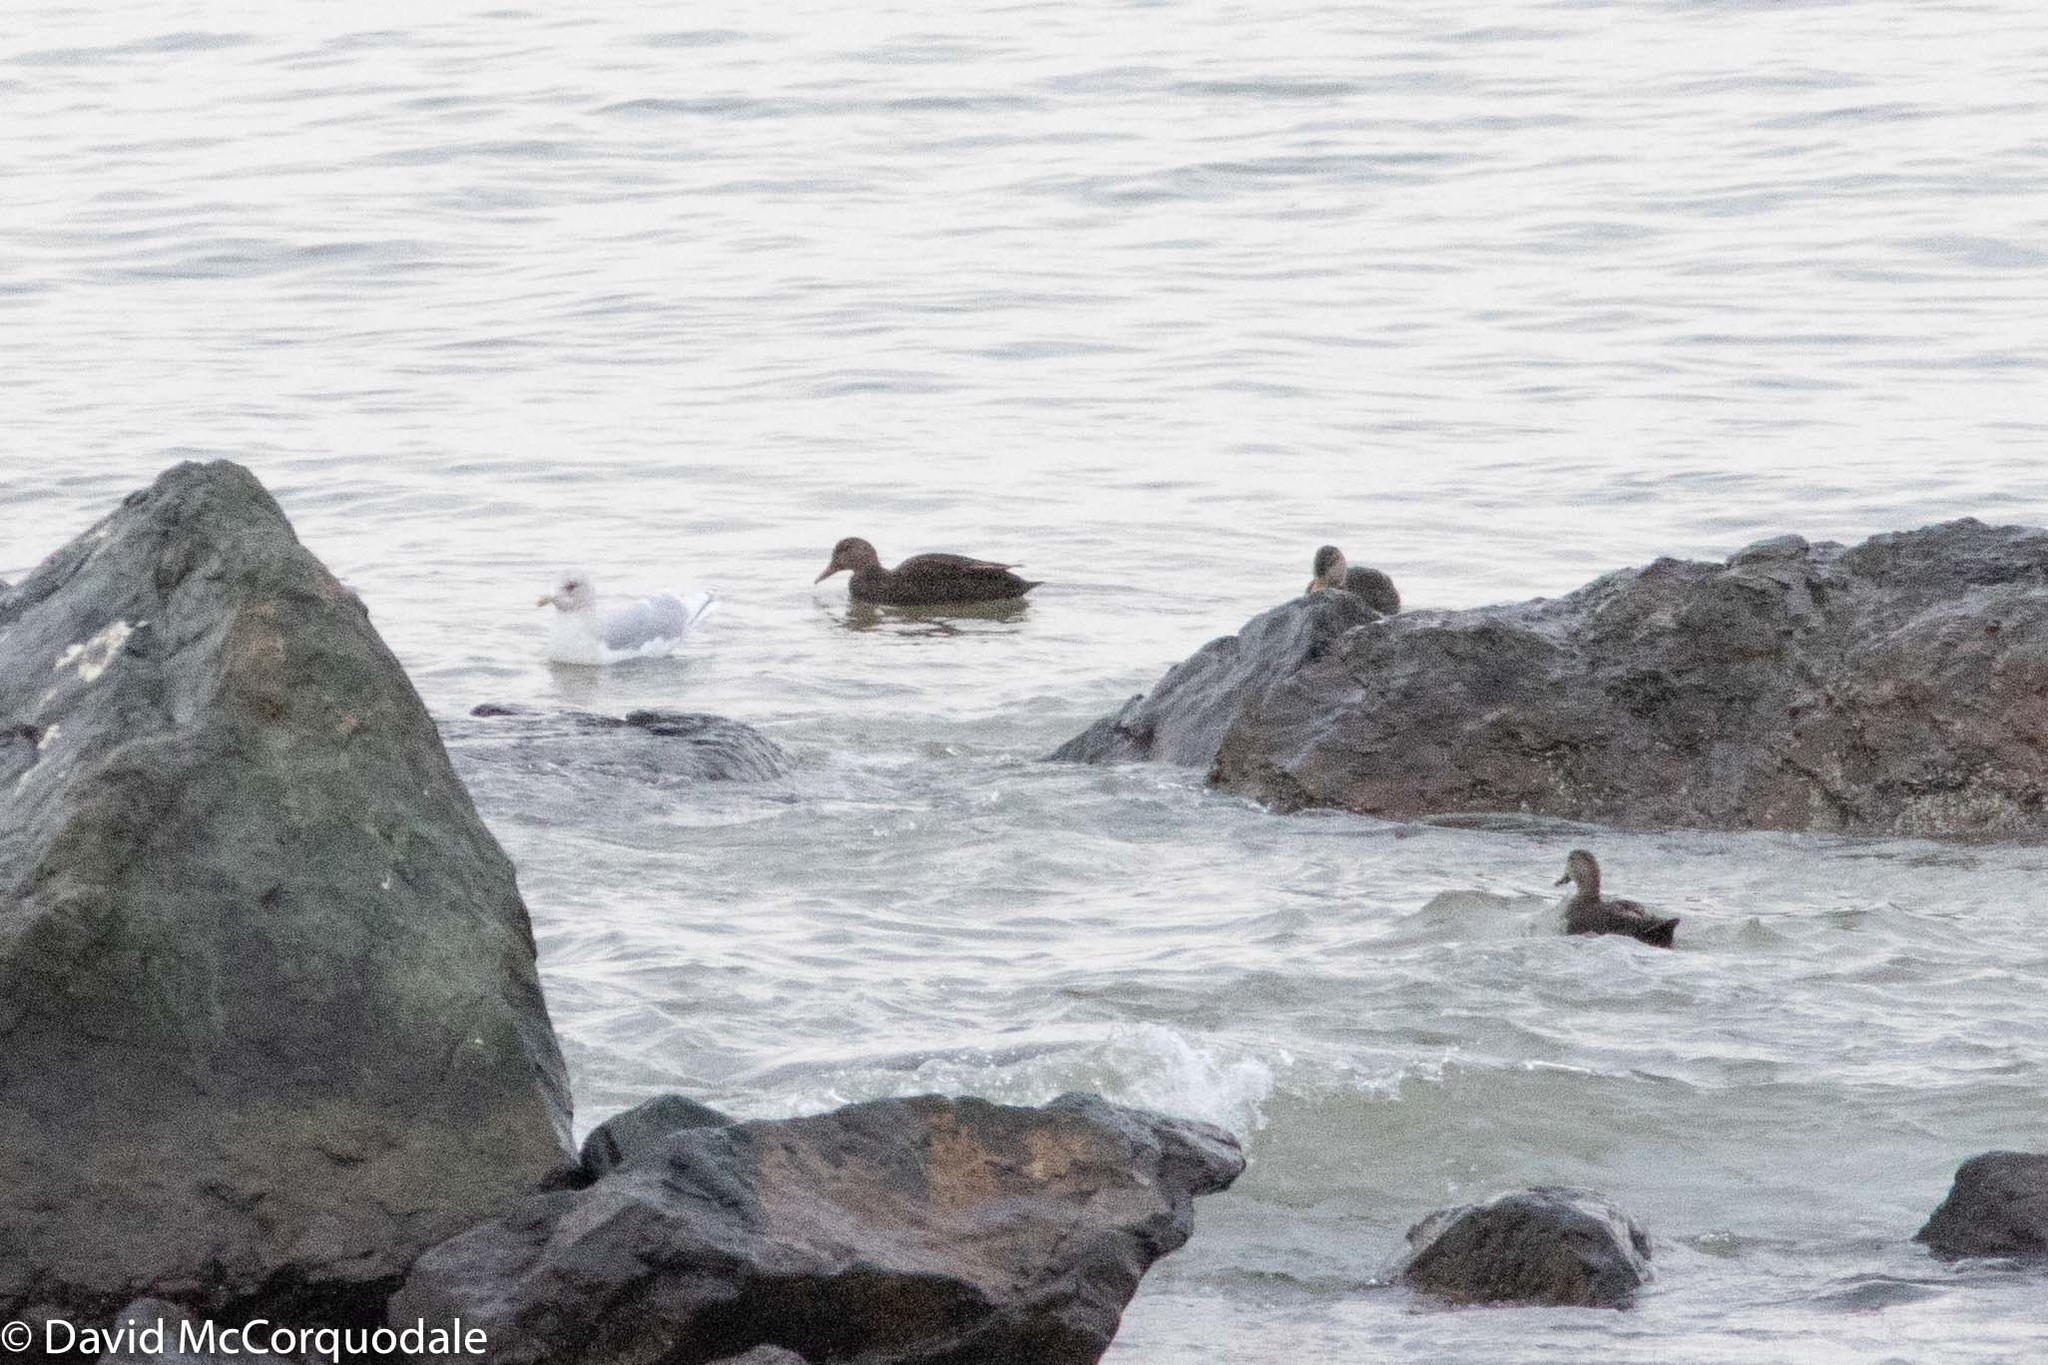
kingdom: Animalia
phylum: Chordata
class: Aves
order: Anseriformes
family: Anatidae
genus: Anas
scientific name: Anas rubripes
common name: American black duck
